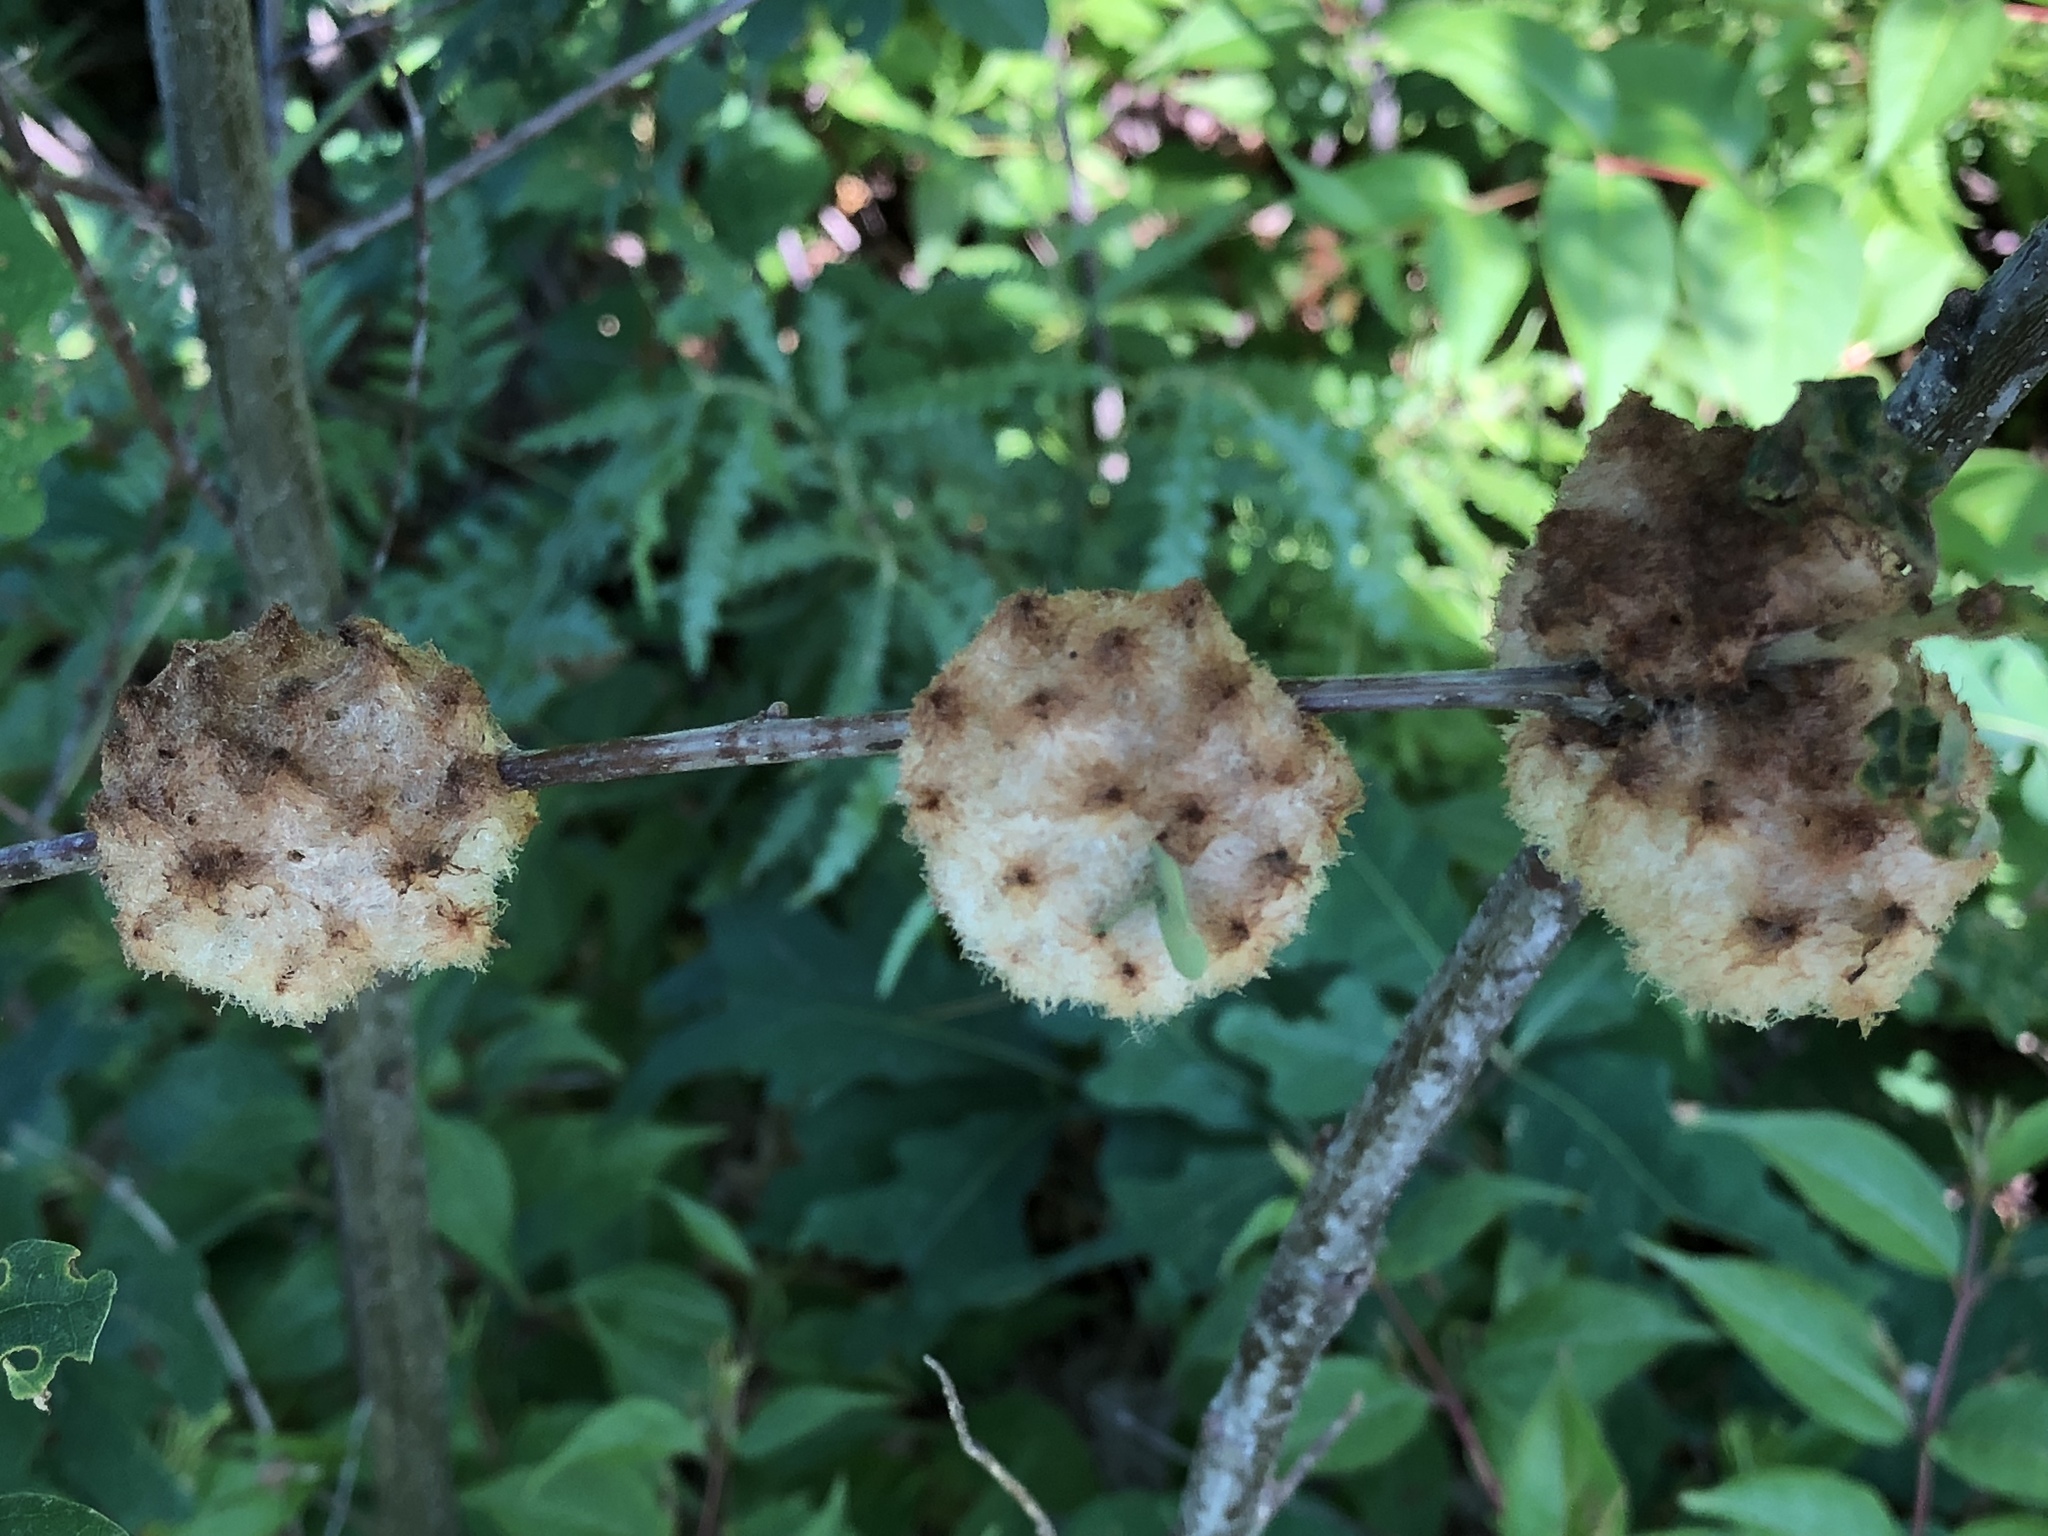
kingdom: Animalia
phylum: Arthropoda
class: Insecta
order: Hymenoptera
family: Cynipidae
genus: Callirhytis
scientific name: Callirhytis
